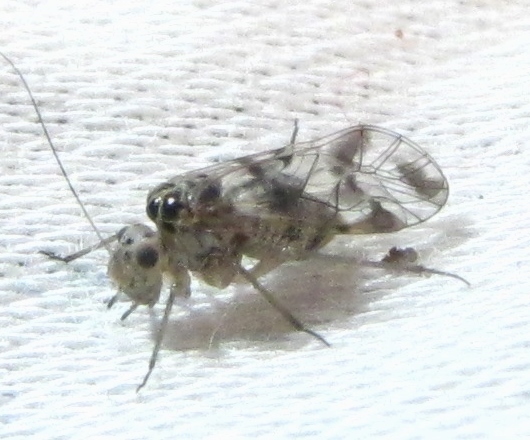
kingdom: Animalia
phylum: Arthropoda
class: Insecta
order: Psocodea
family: Psocidae
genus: Metylophorus
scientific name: Metylophorus novaescotiae
